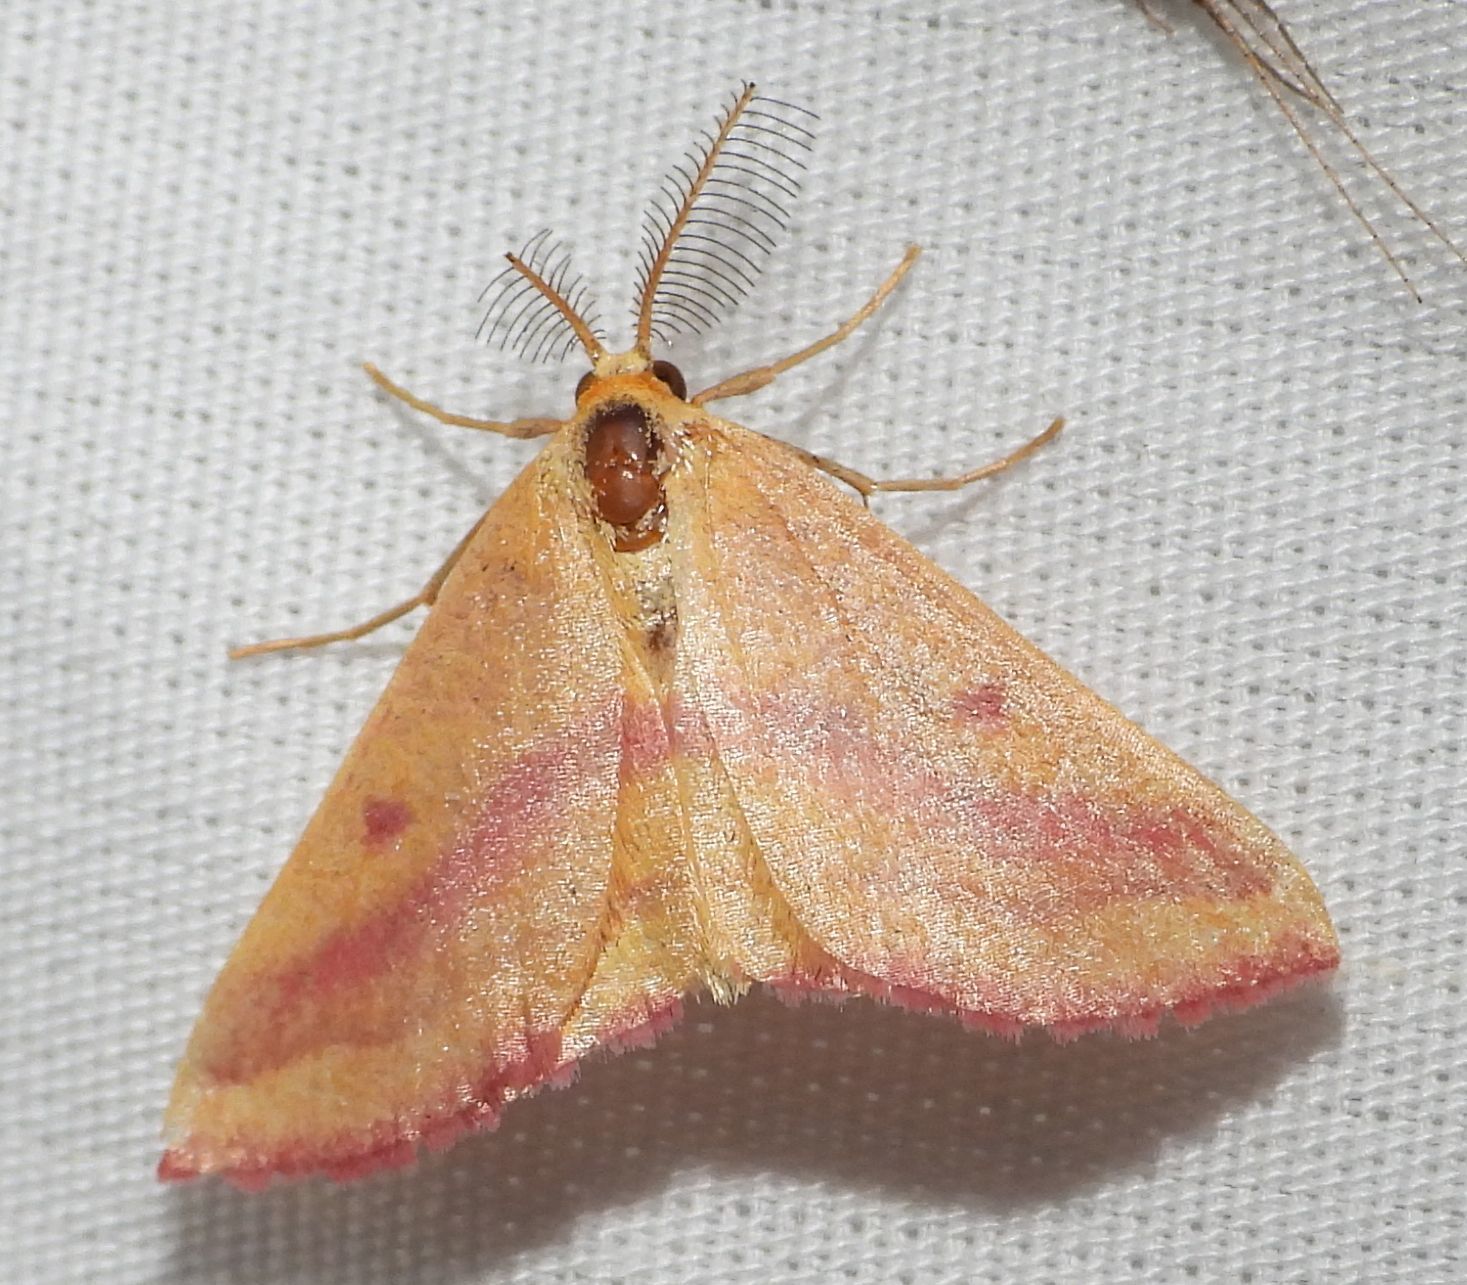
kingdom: Animalia
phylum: Arthropoda
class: Insecta
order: Lepidoptera
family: Geometridae
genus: Haematopis
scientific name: Haematopis grataria
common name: Chickweed geometer
